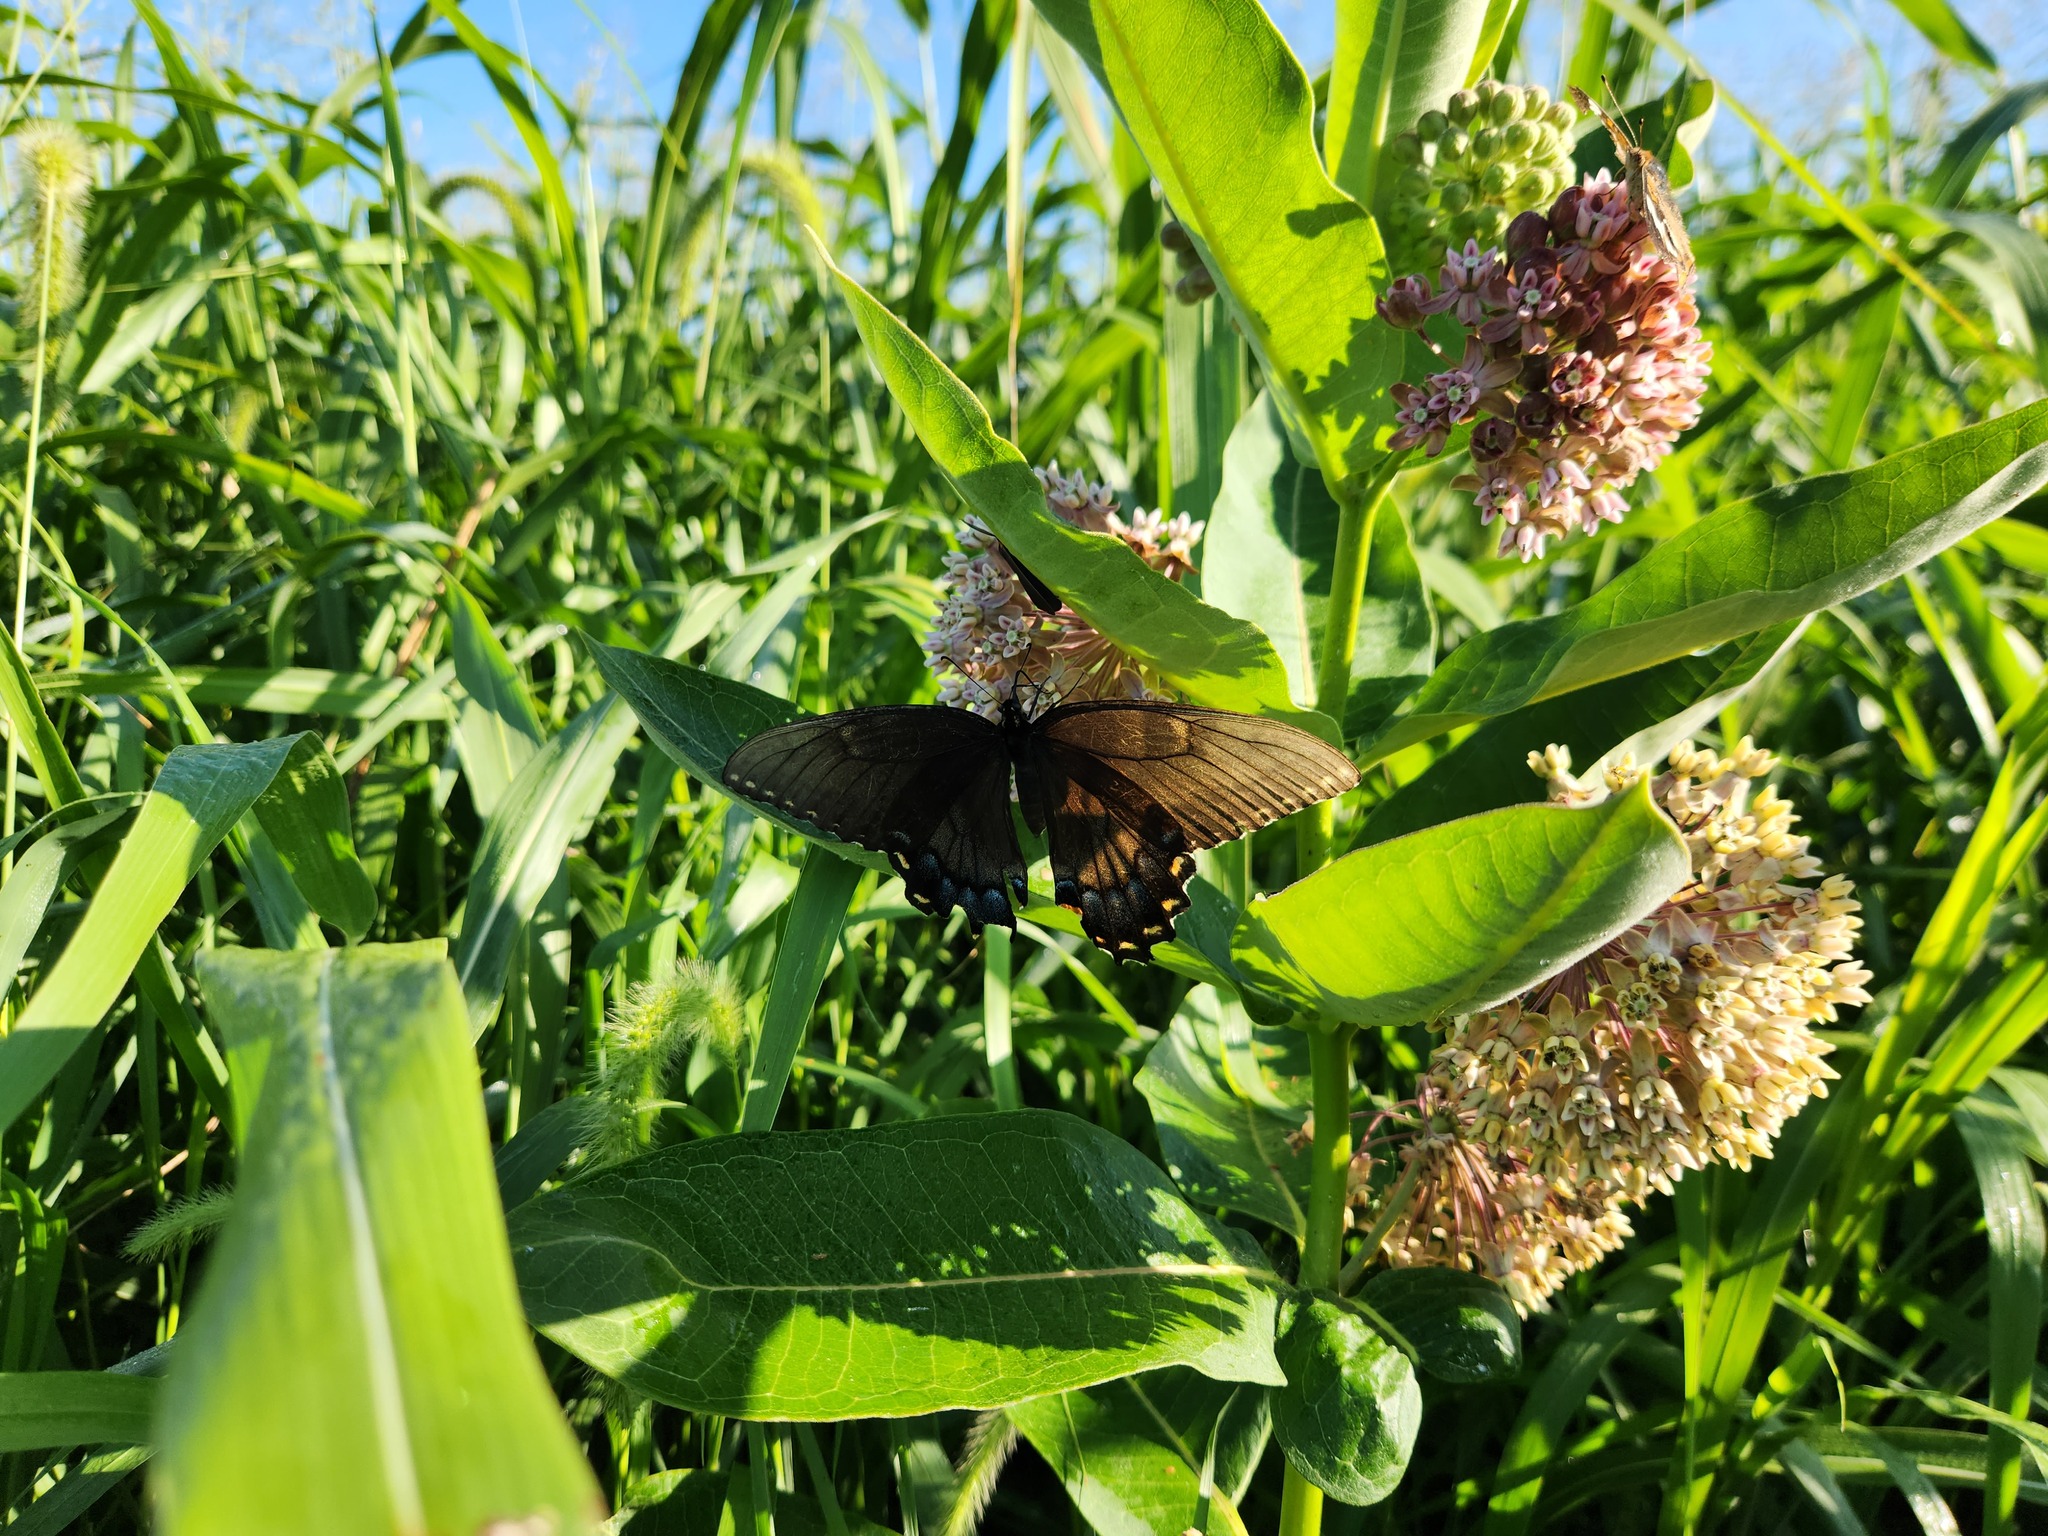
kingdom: Animalia
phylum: Arthropoda
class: Insecta
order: Lepidoptera
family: Papilionidae
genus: Papilio
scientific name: Papilio glaucus
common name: Tiger swallowtail
